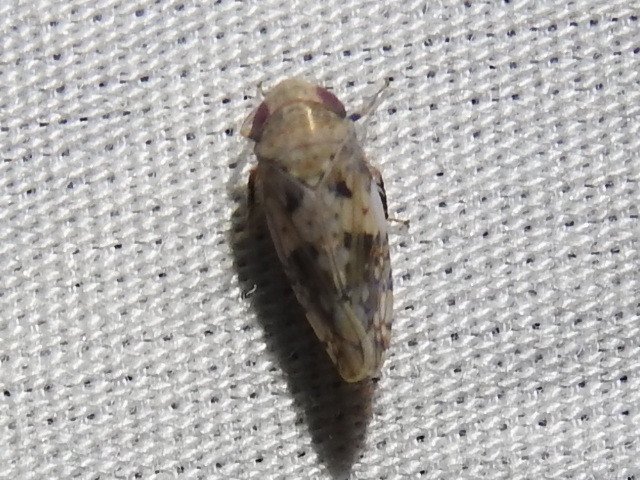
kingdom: Animalia
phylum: Arthropoda
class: Insecta
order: Hemiptera
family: Cicadellidae
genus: Menosoma
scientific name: Menosoma cinctum
